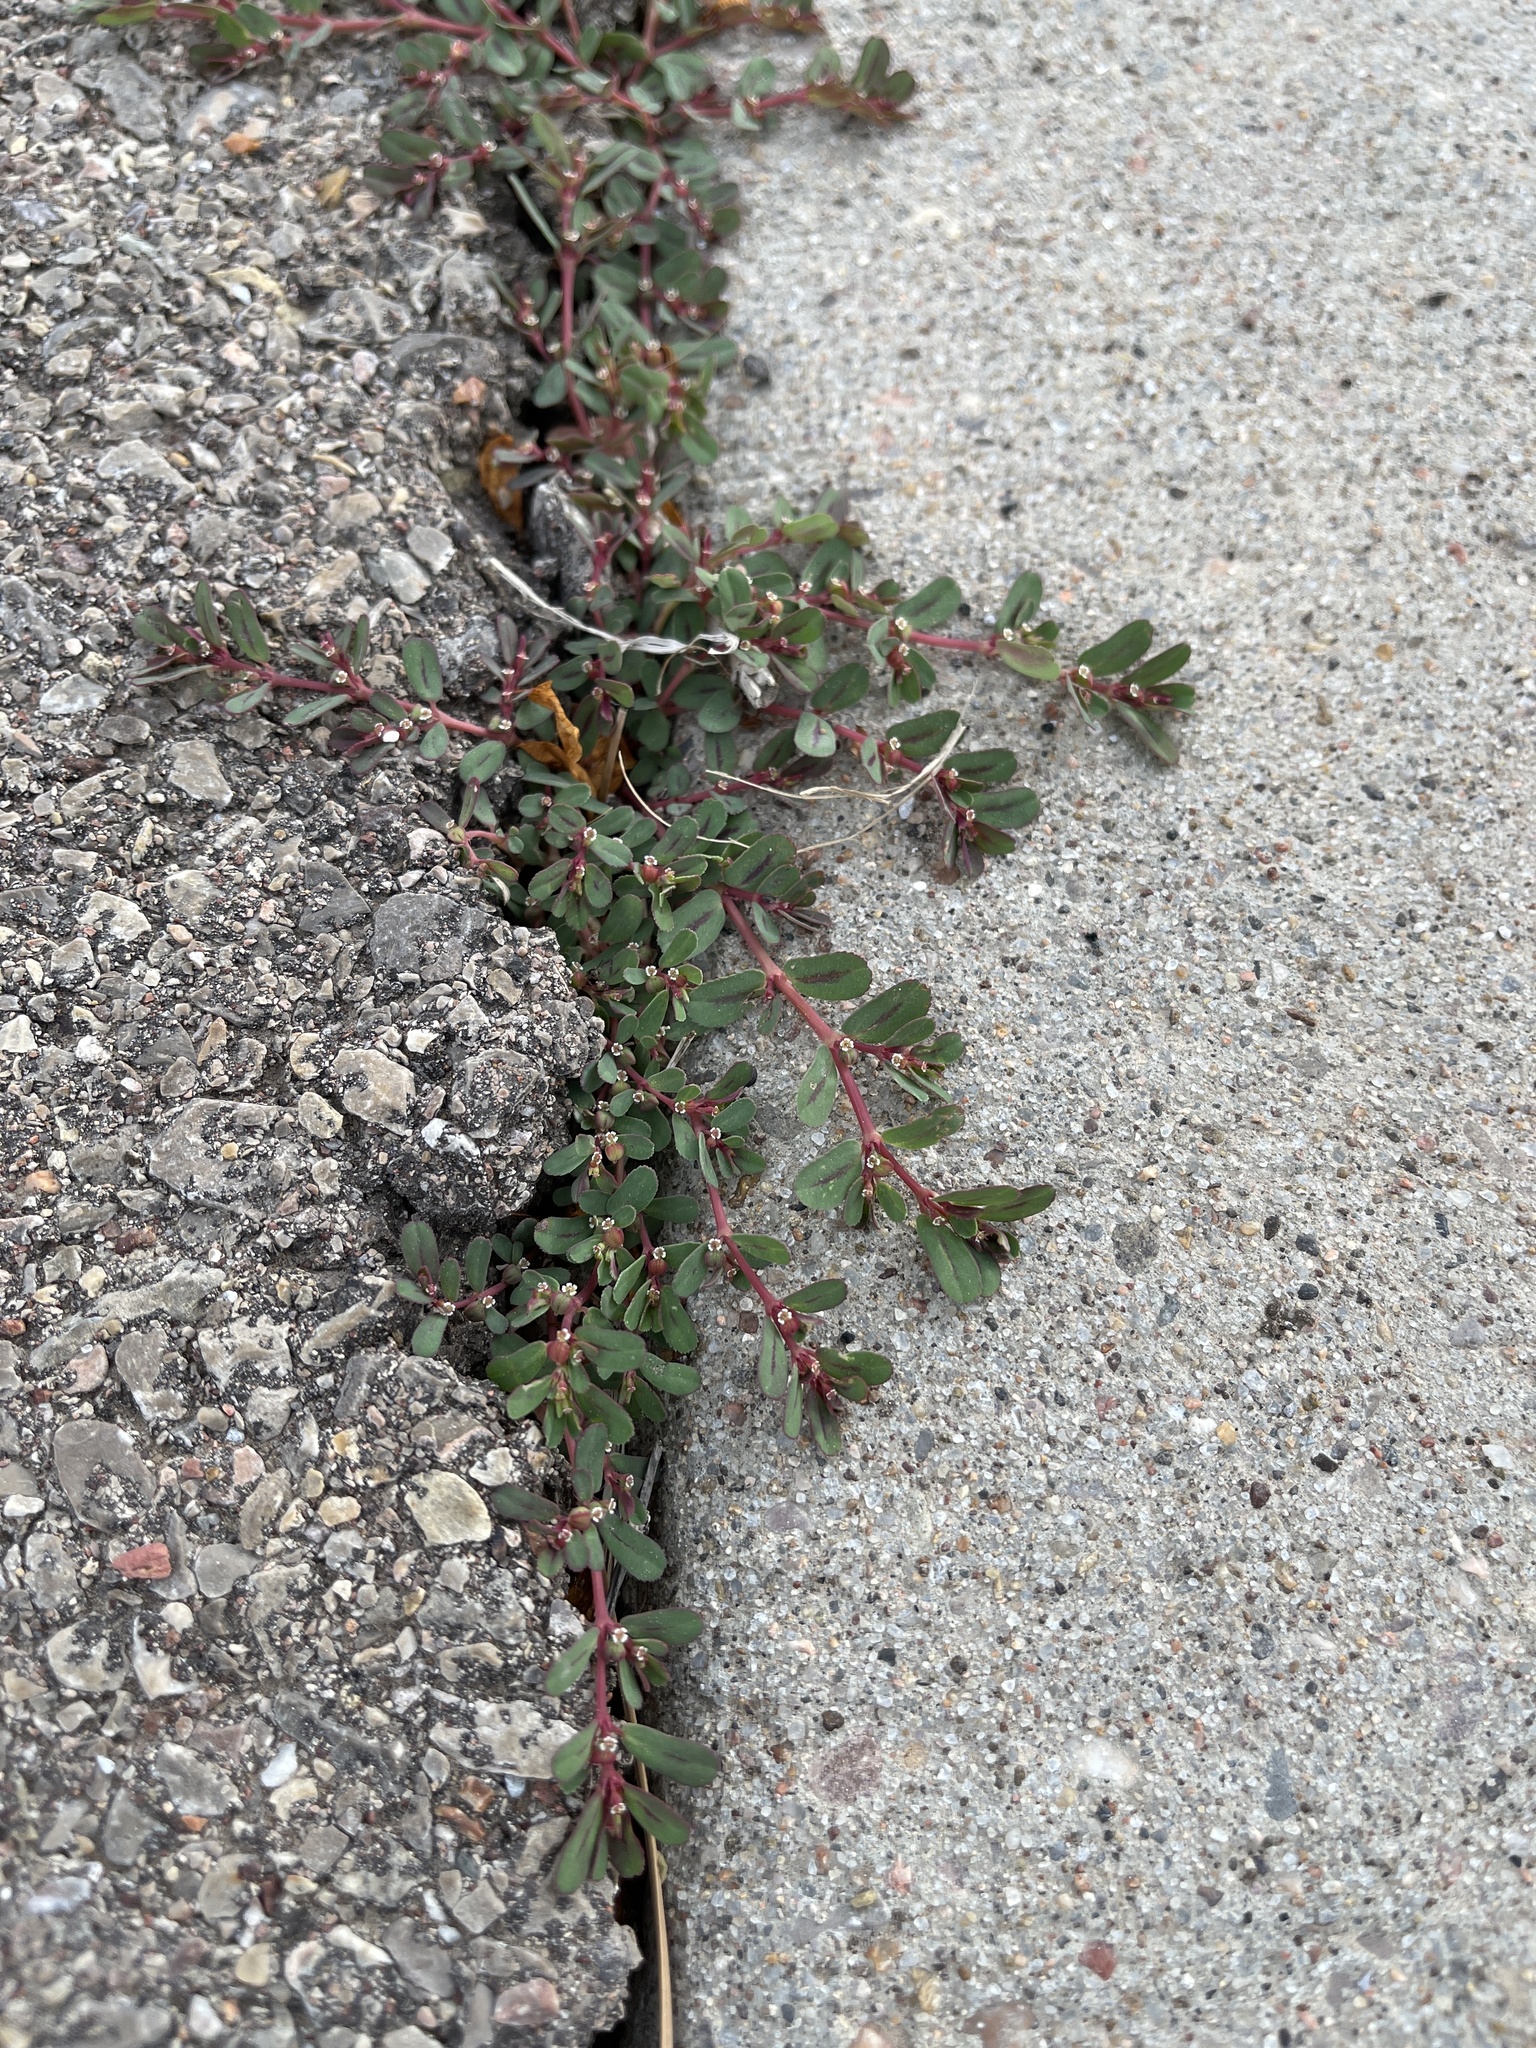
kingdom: Plantae
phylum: Tracheophyta
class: Magnoliopsida
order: Malpighiales
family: Euphorbiaceae
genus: Euphorbia
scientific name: Euphorbia serpillifolia
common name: Thyme-leaf spurge
